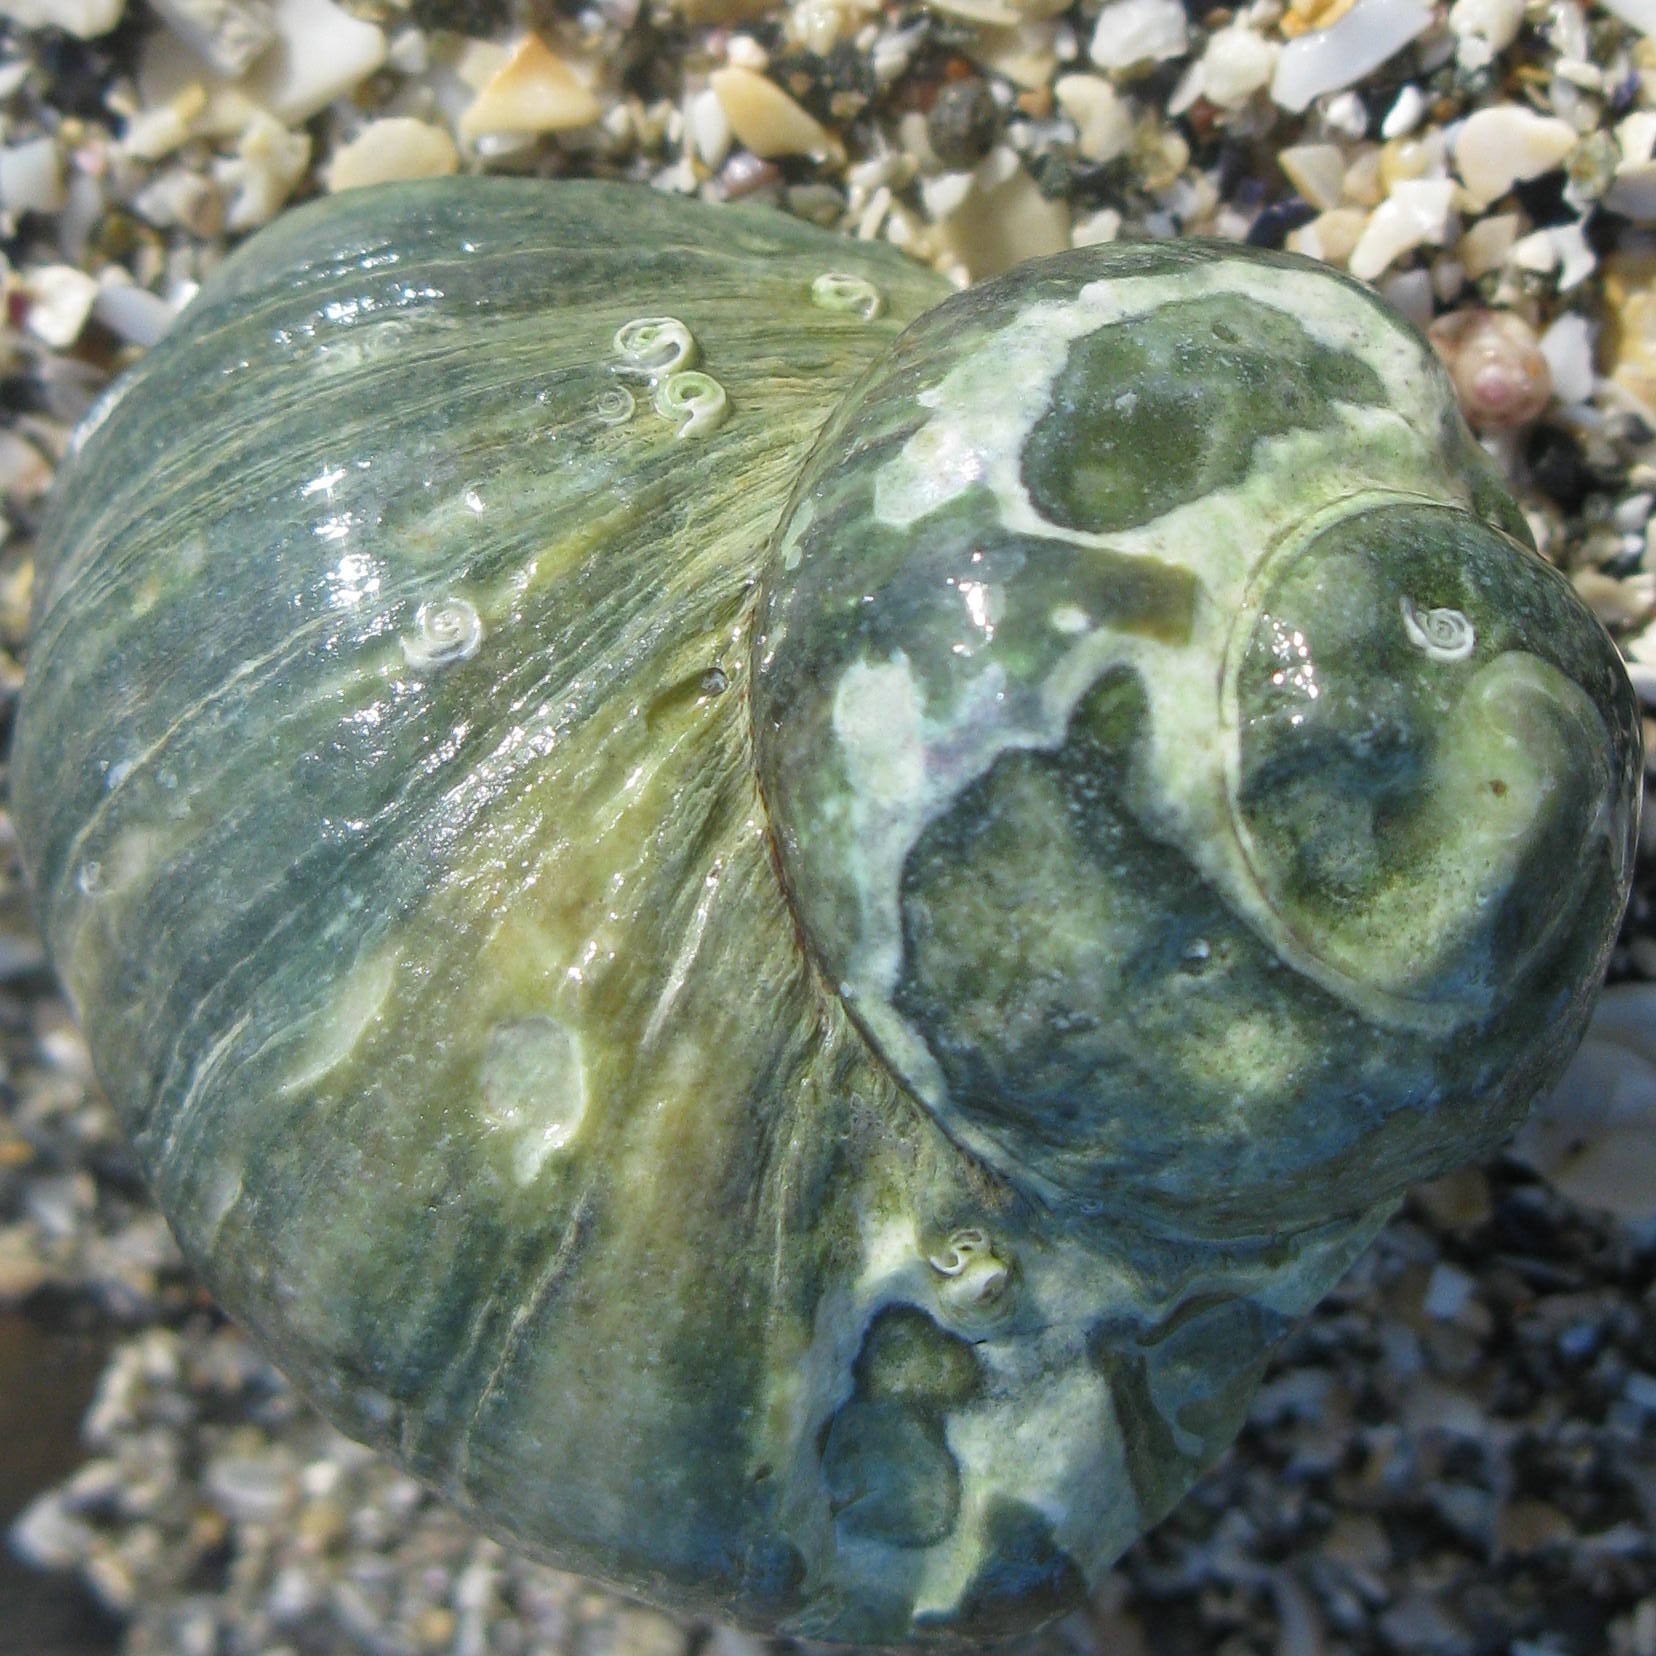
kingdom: Animalia
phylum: Mollusca
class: Gastropoda
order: Trochida
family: Turbinidae
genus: Lunella
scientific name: Lunella smaragda
